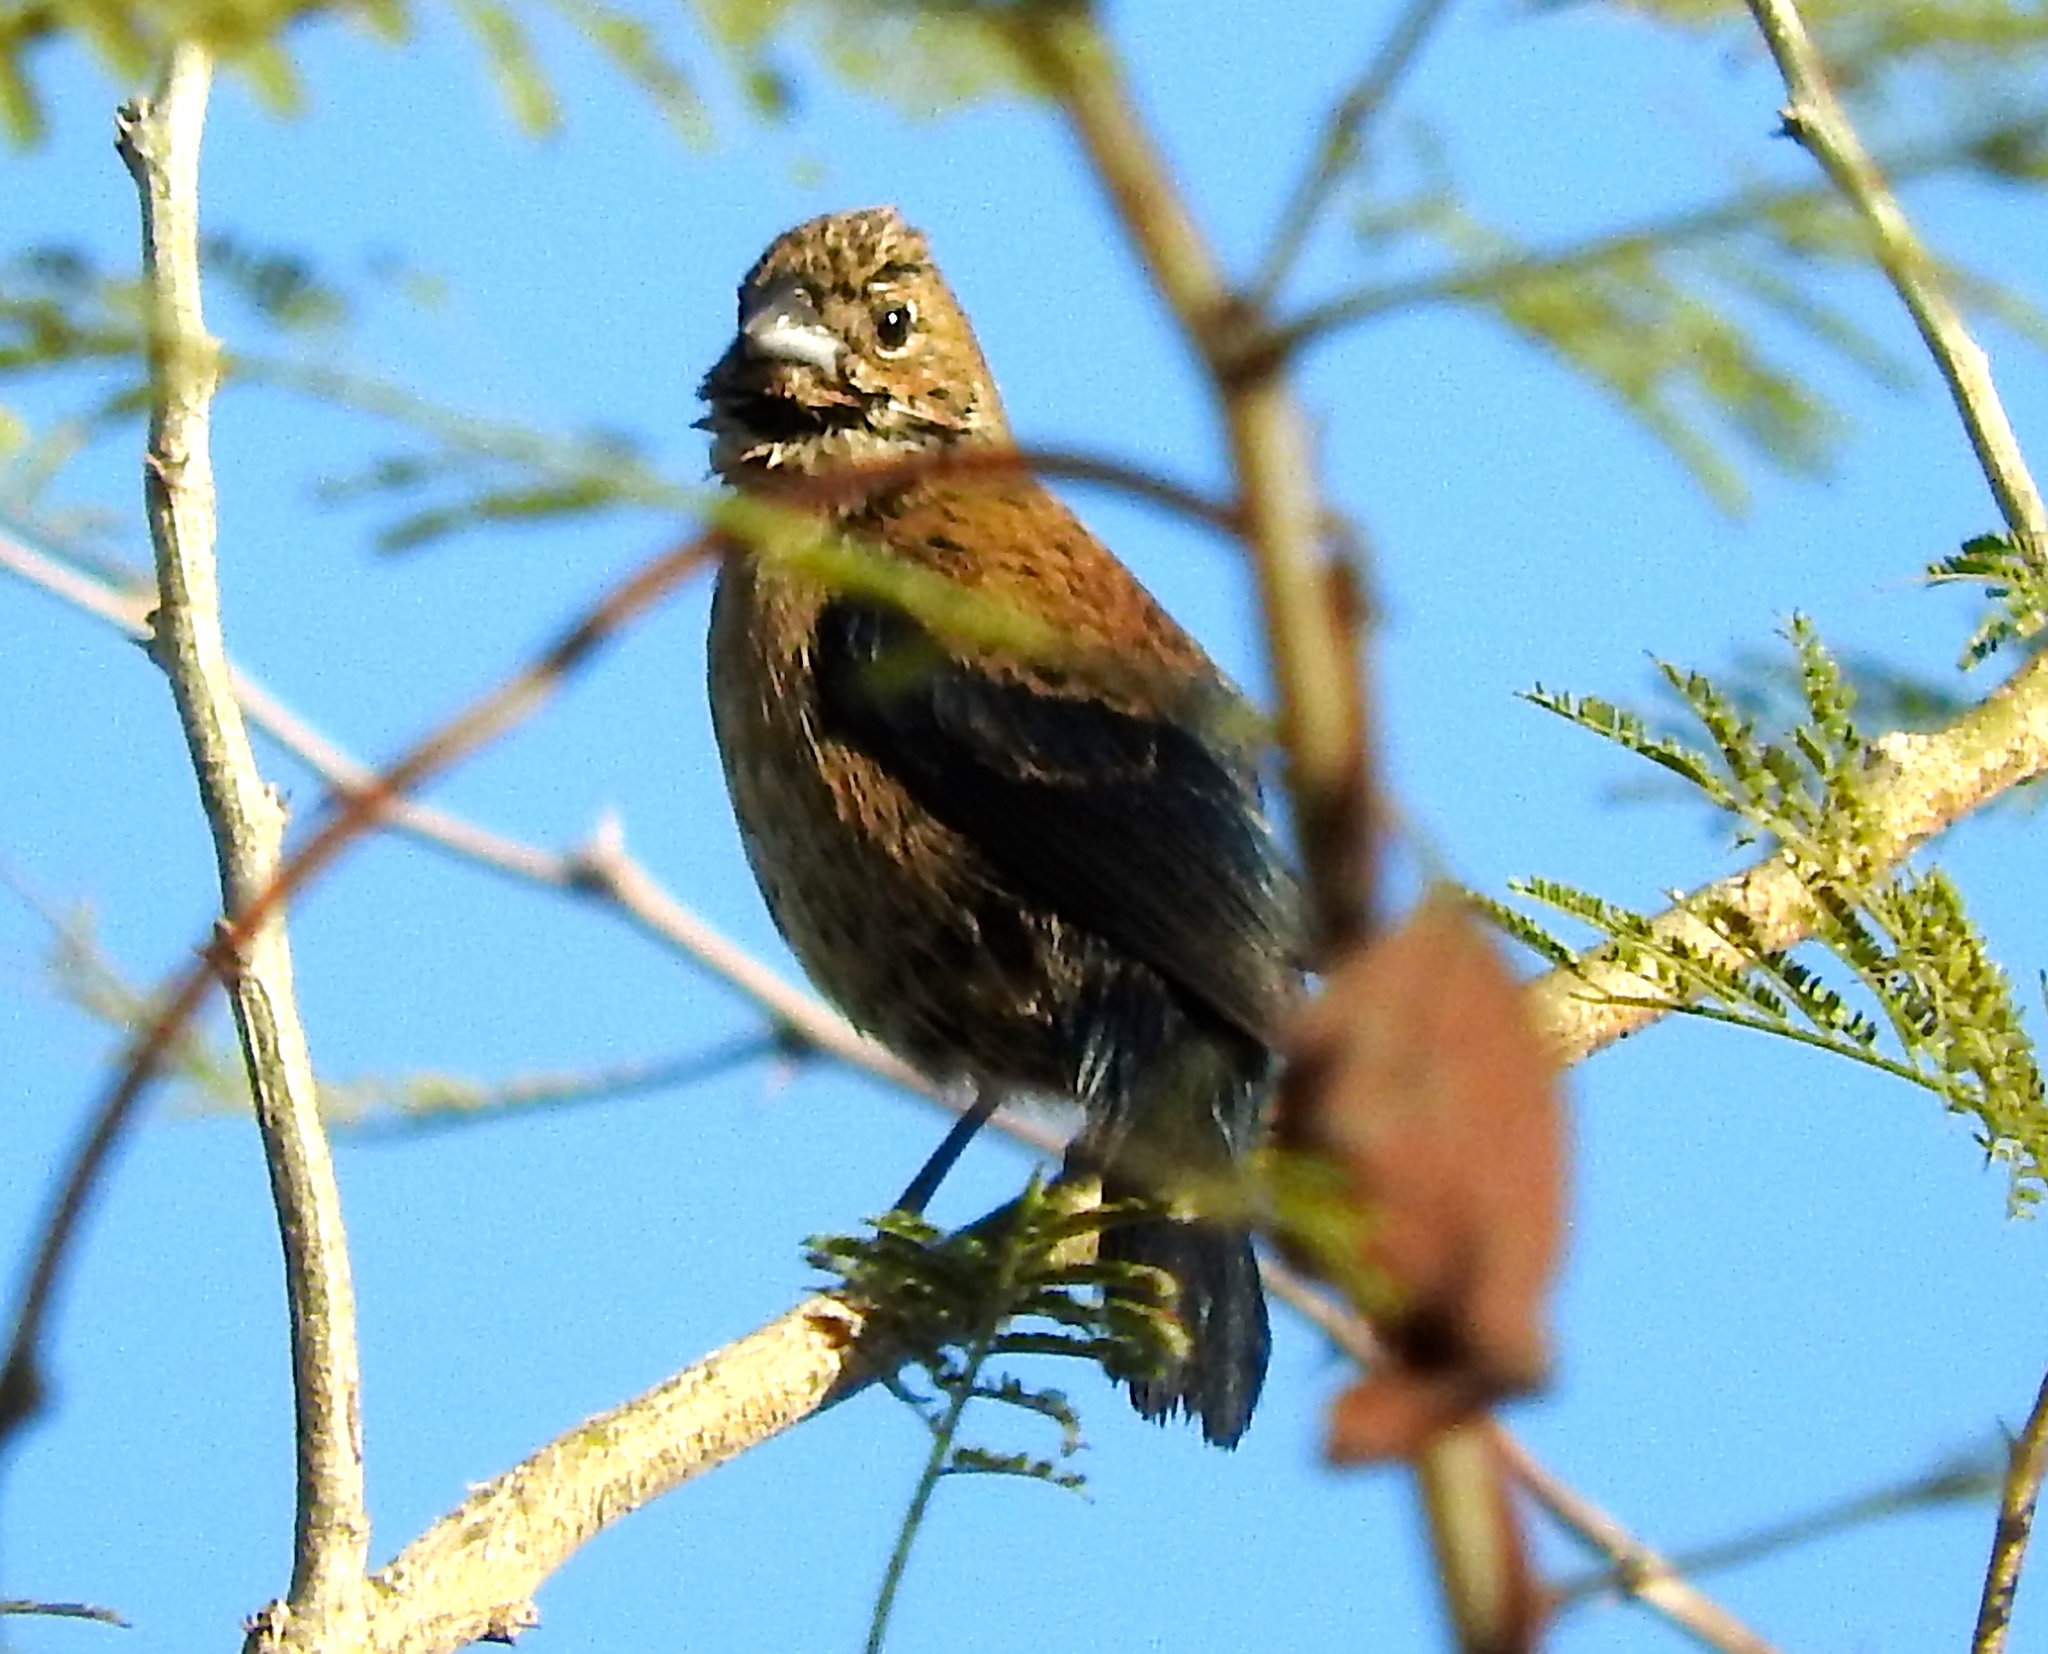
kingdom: Animalia
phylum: Chordata
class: Aves
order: Passeriformes
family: Cardinalidae
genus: Passerina
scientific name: Passerina versicolor
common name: Varied bunting
